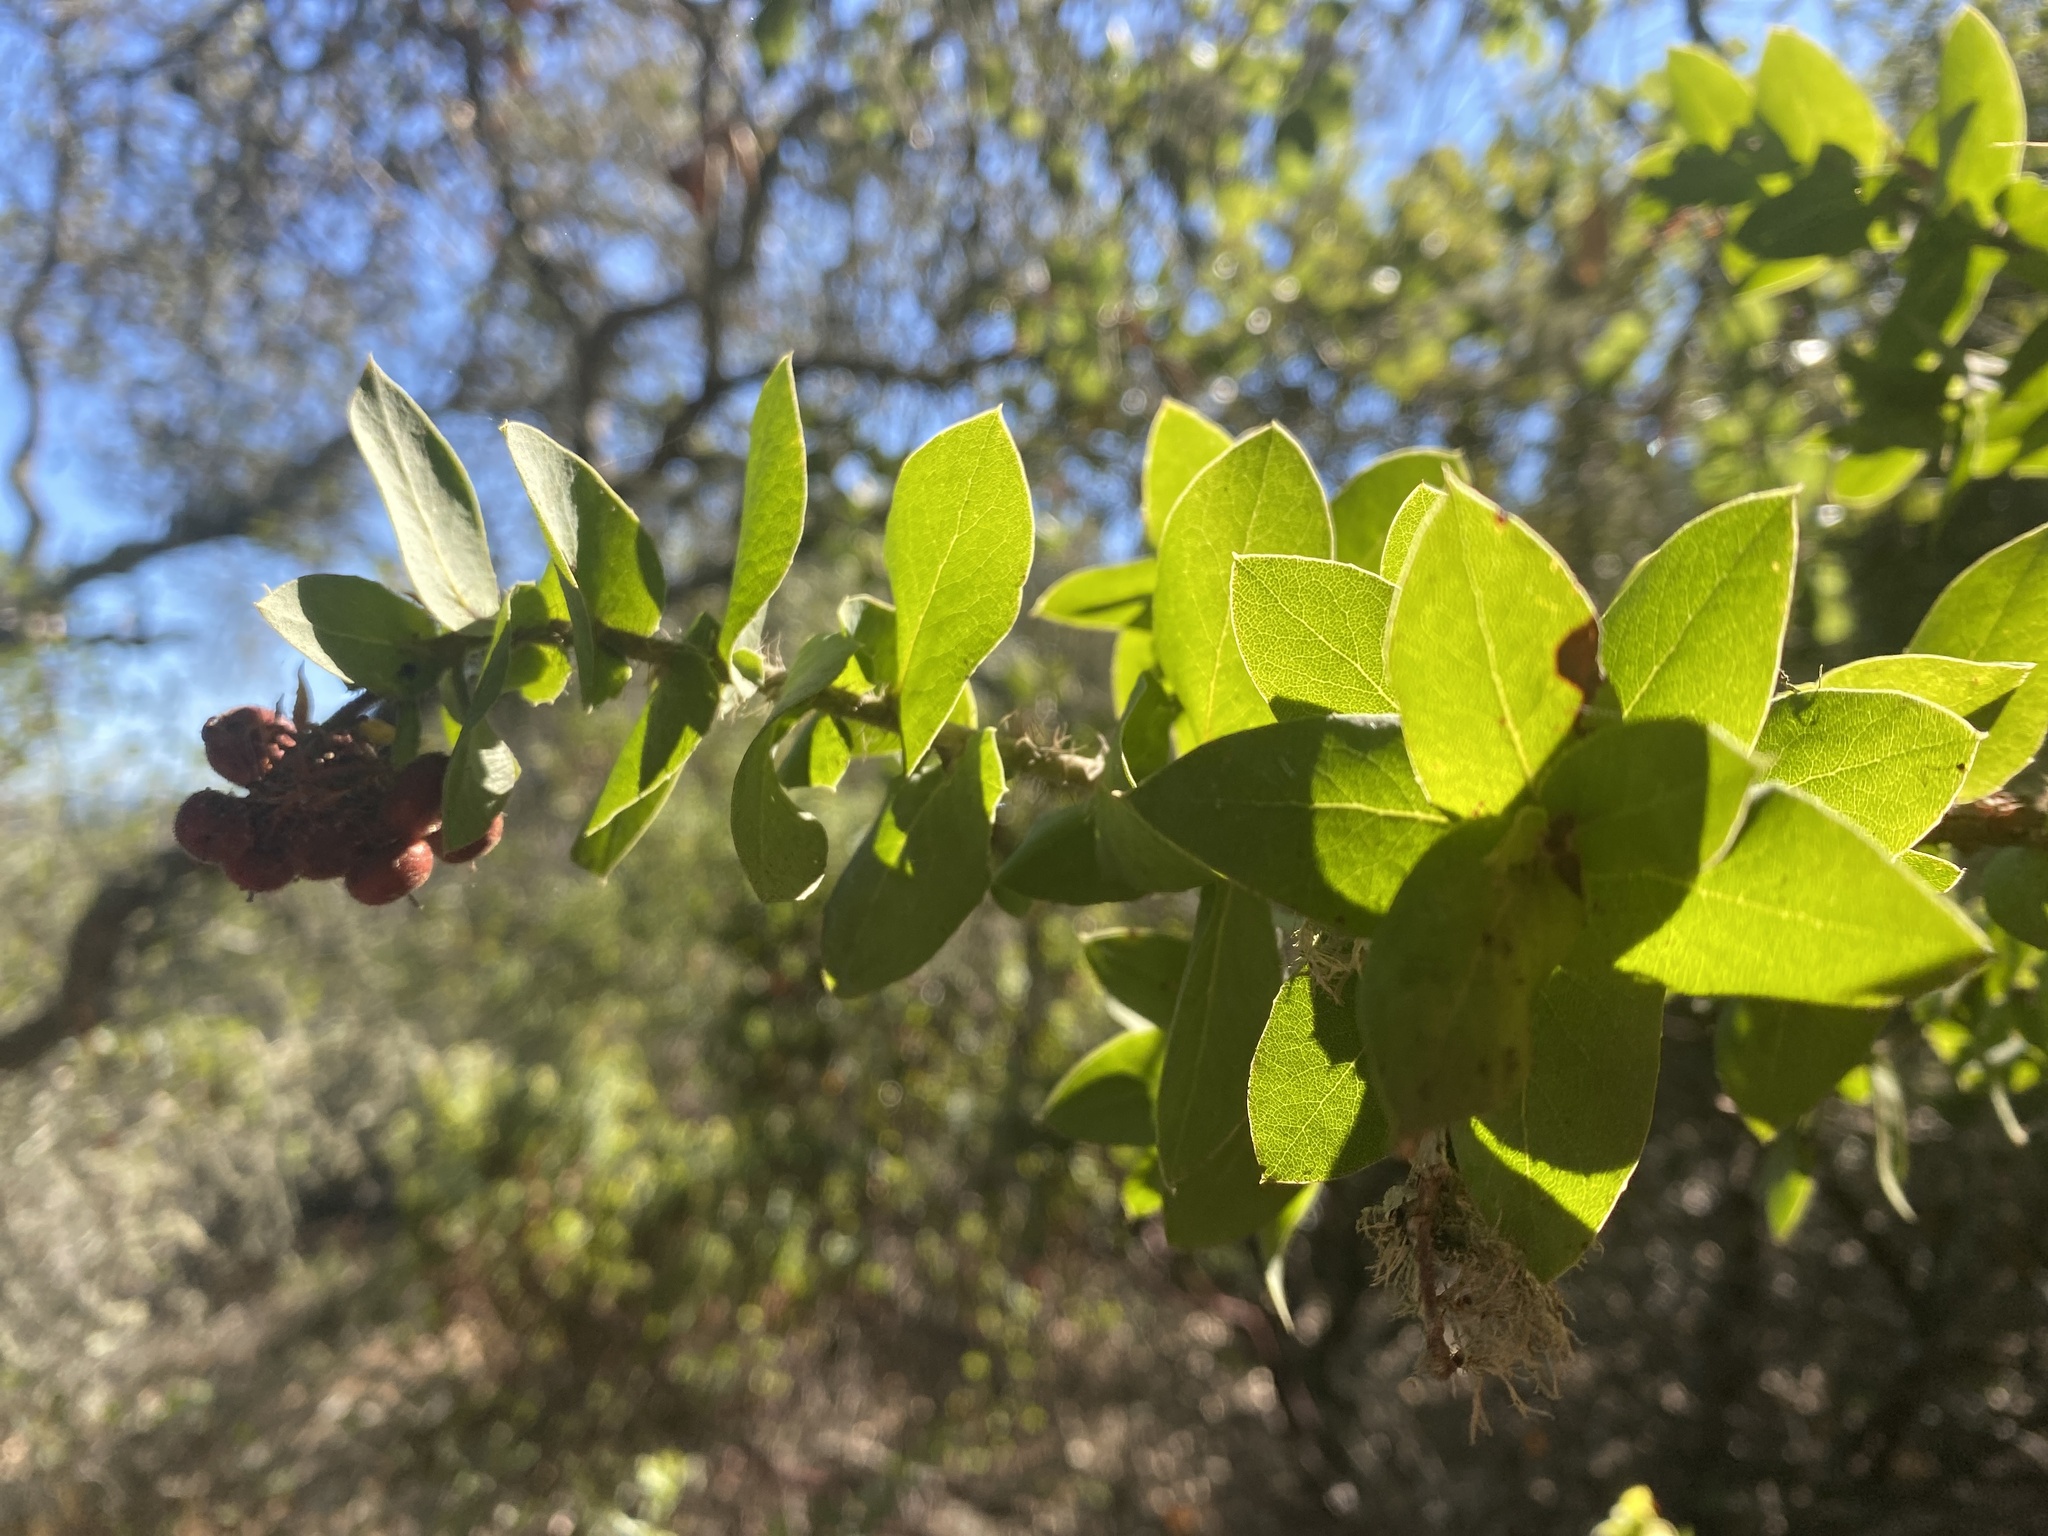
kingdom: Plantae
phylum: Tracheophyta
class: Magnoliopsida
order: Ericales
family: Ericaceae
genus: Arctostaphylos
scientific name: Arctostaphylos pallida
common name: Pallid manzanita
